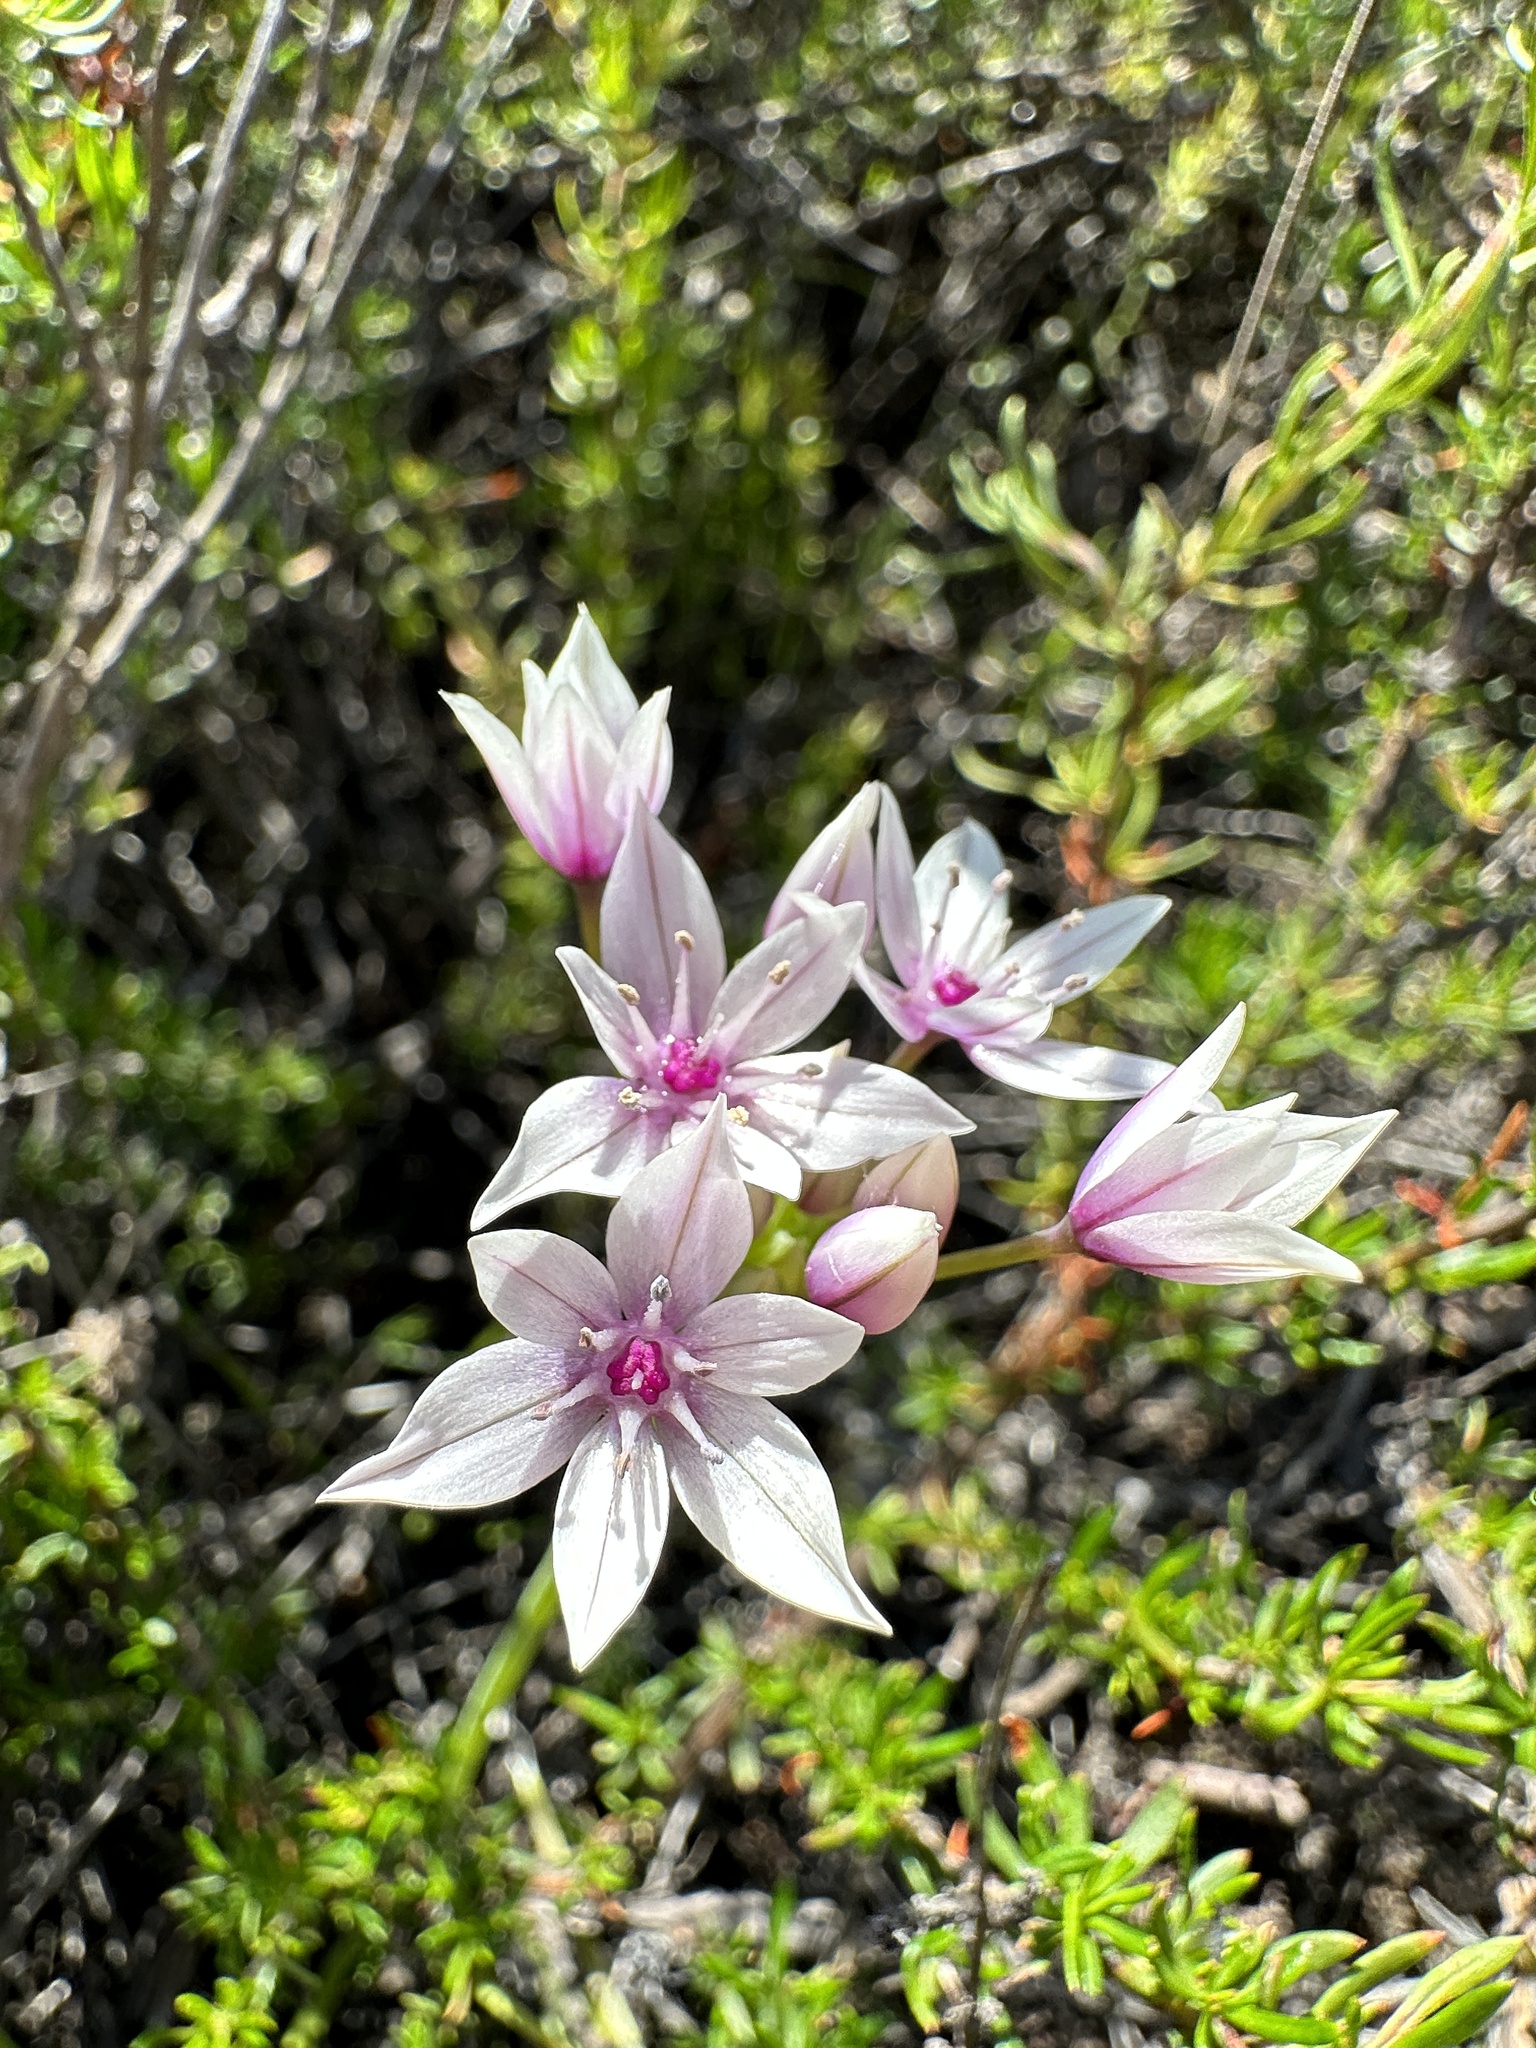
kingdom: Plantae
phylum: Tracheophyta
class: Liliopsida
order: Asparagales
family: Amaryllidaceae
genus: Allium
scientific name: Allium praecox
